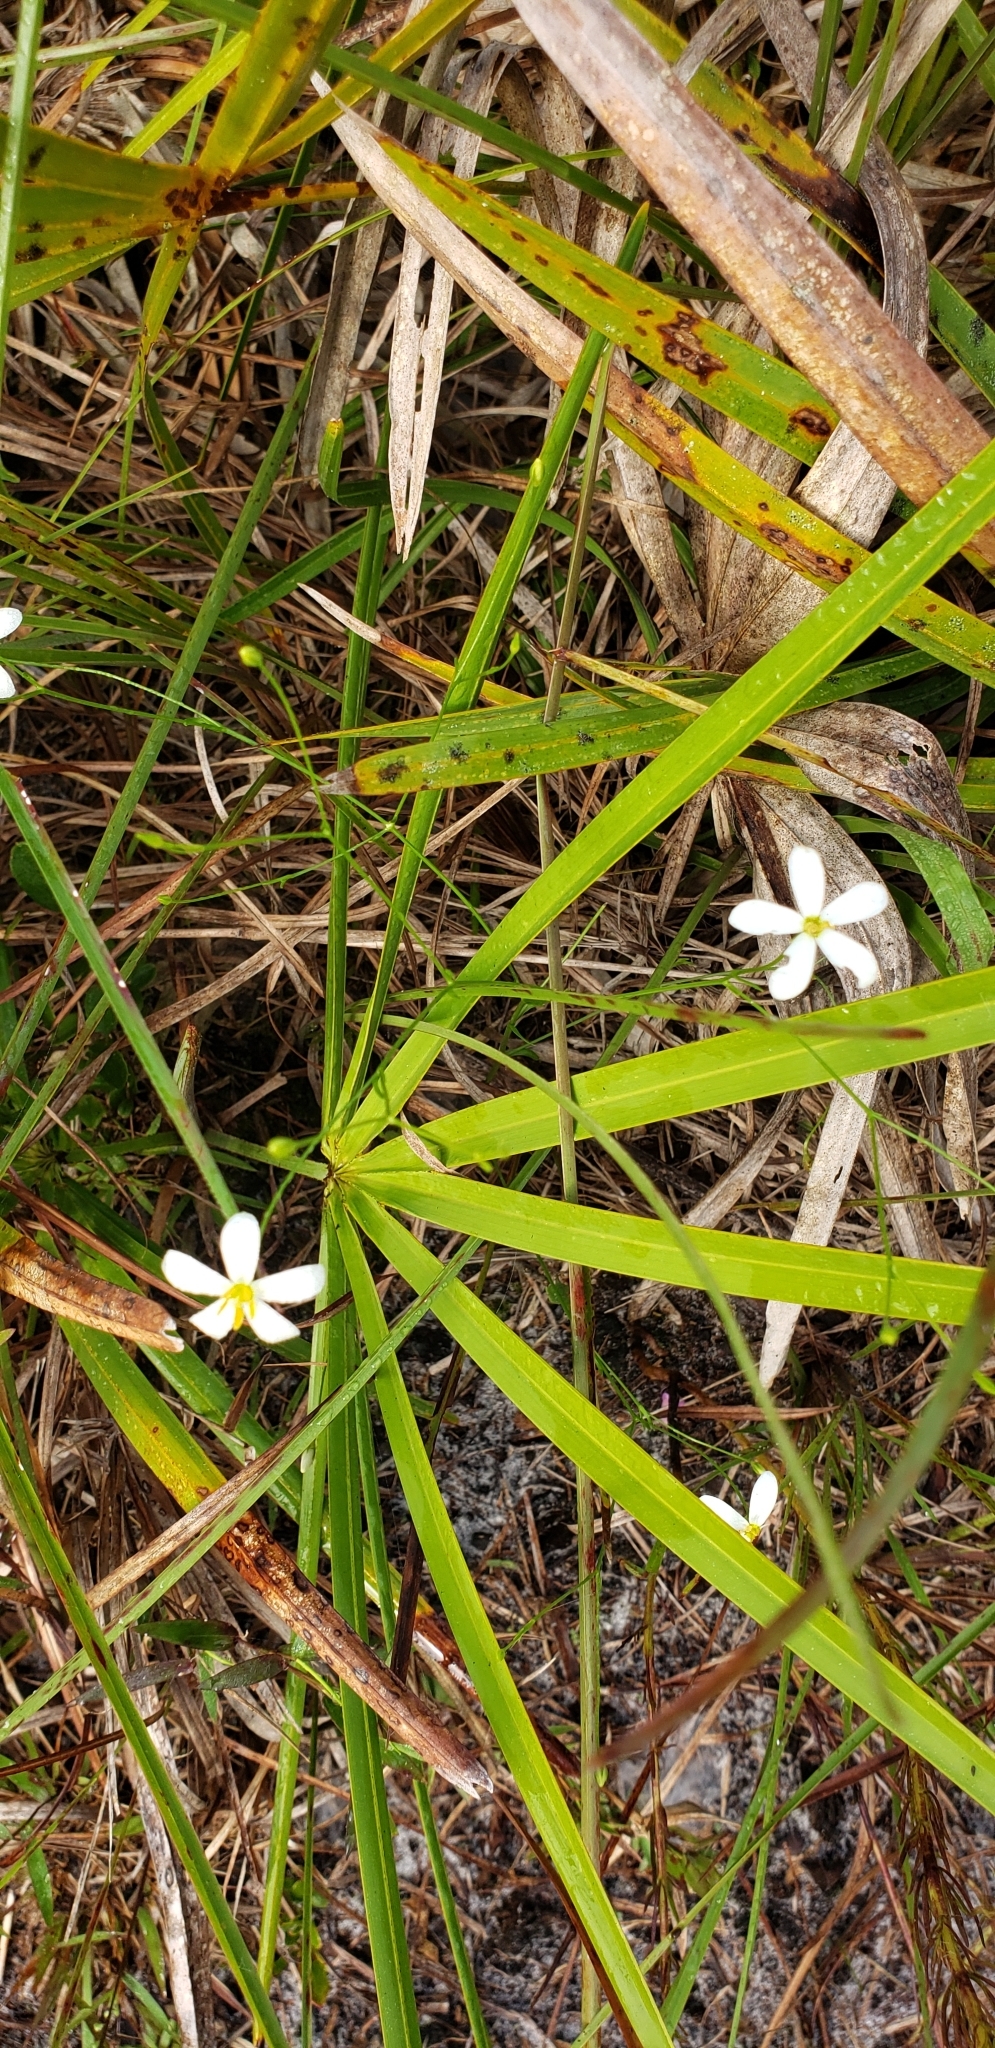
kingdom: Plantae
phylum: Tracheophyta
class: Magnoliopsida
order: Gentianales
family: Gentianaceae
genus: Sabatia
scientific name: Sabatia brevifolia
